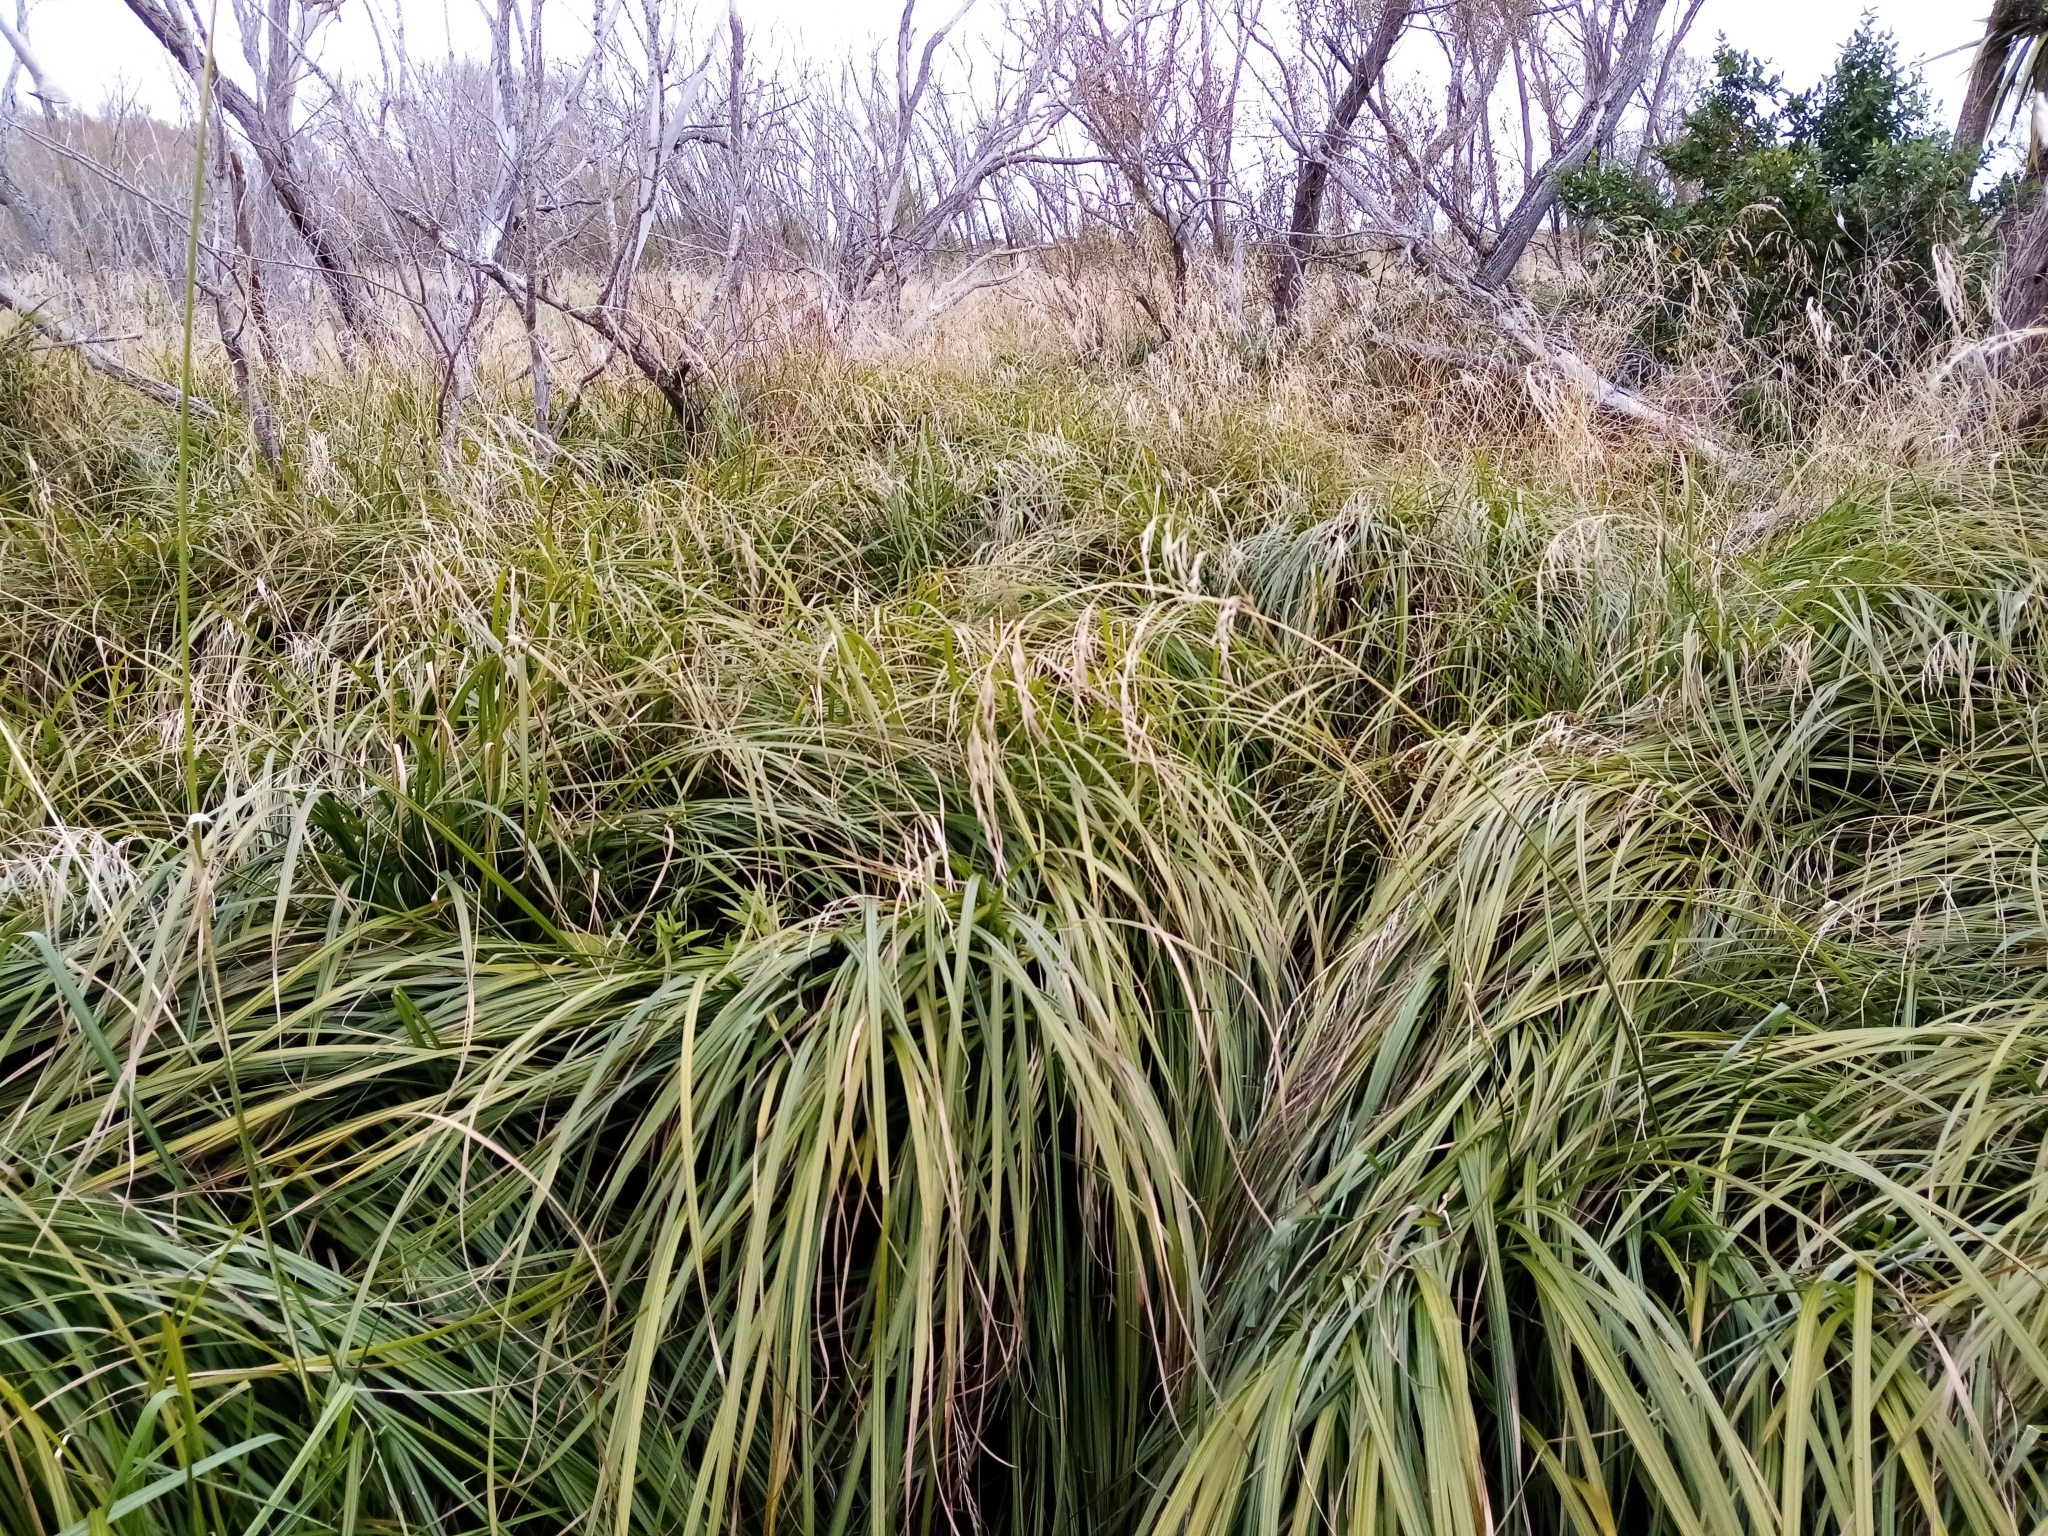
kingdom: Plantae
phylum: Tracheophyta
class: Liliopsida
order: Poales
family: Cyperaceae
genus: Carex
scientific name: Carex geminata
